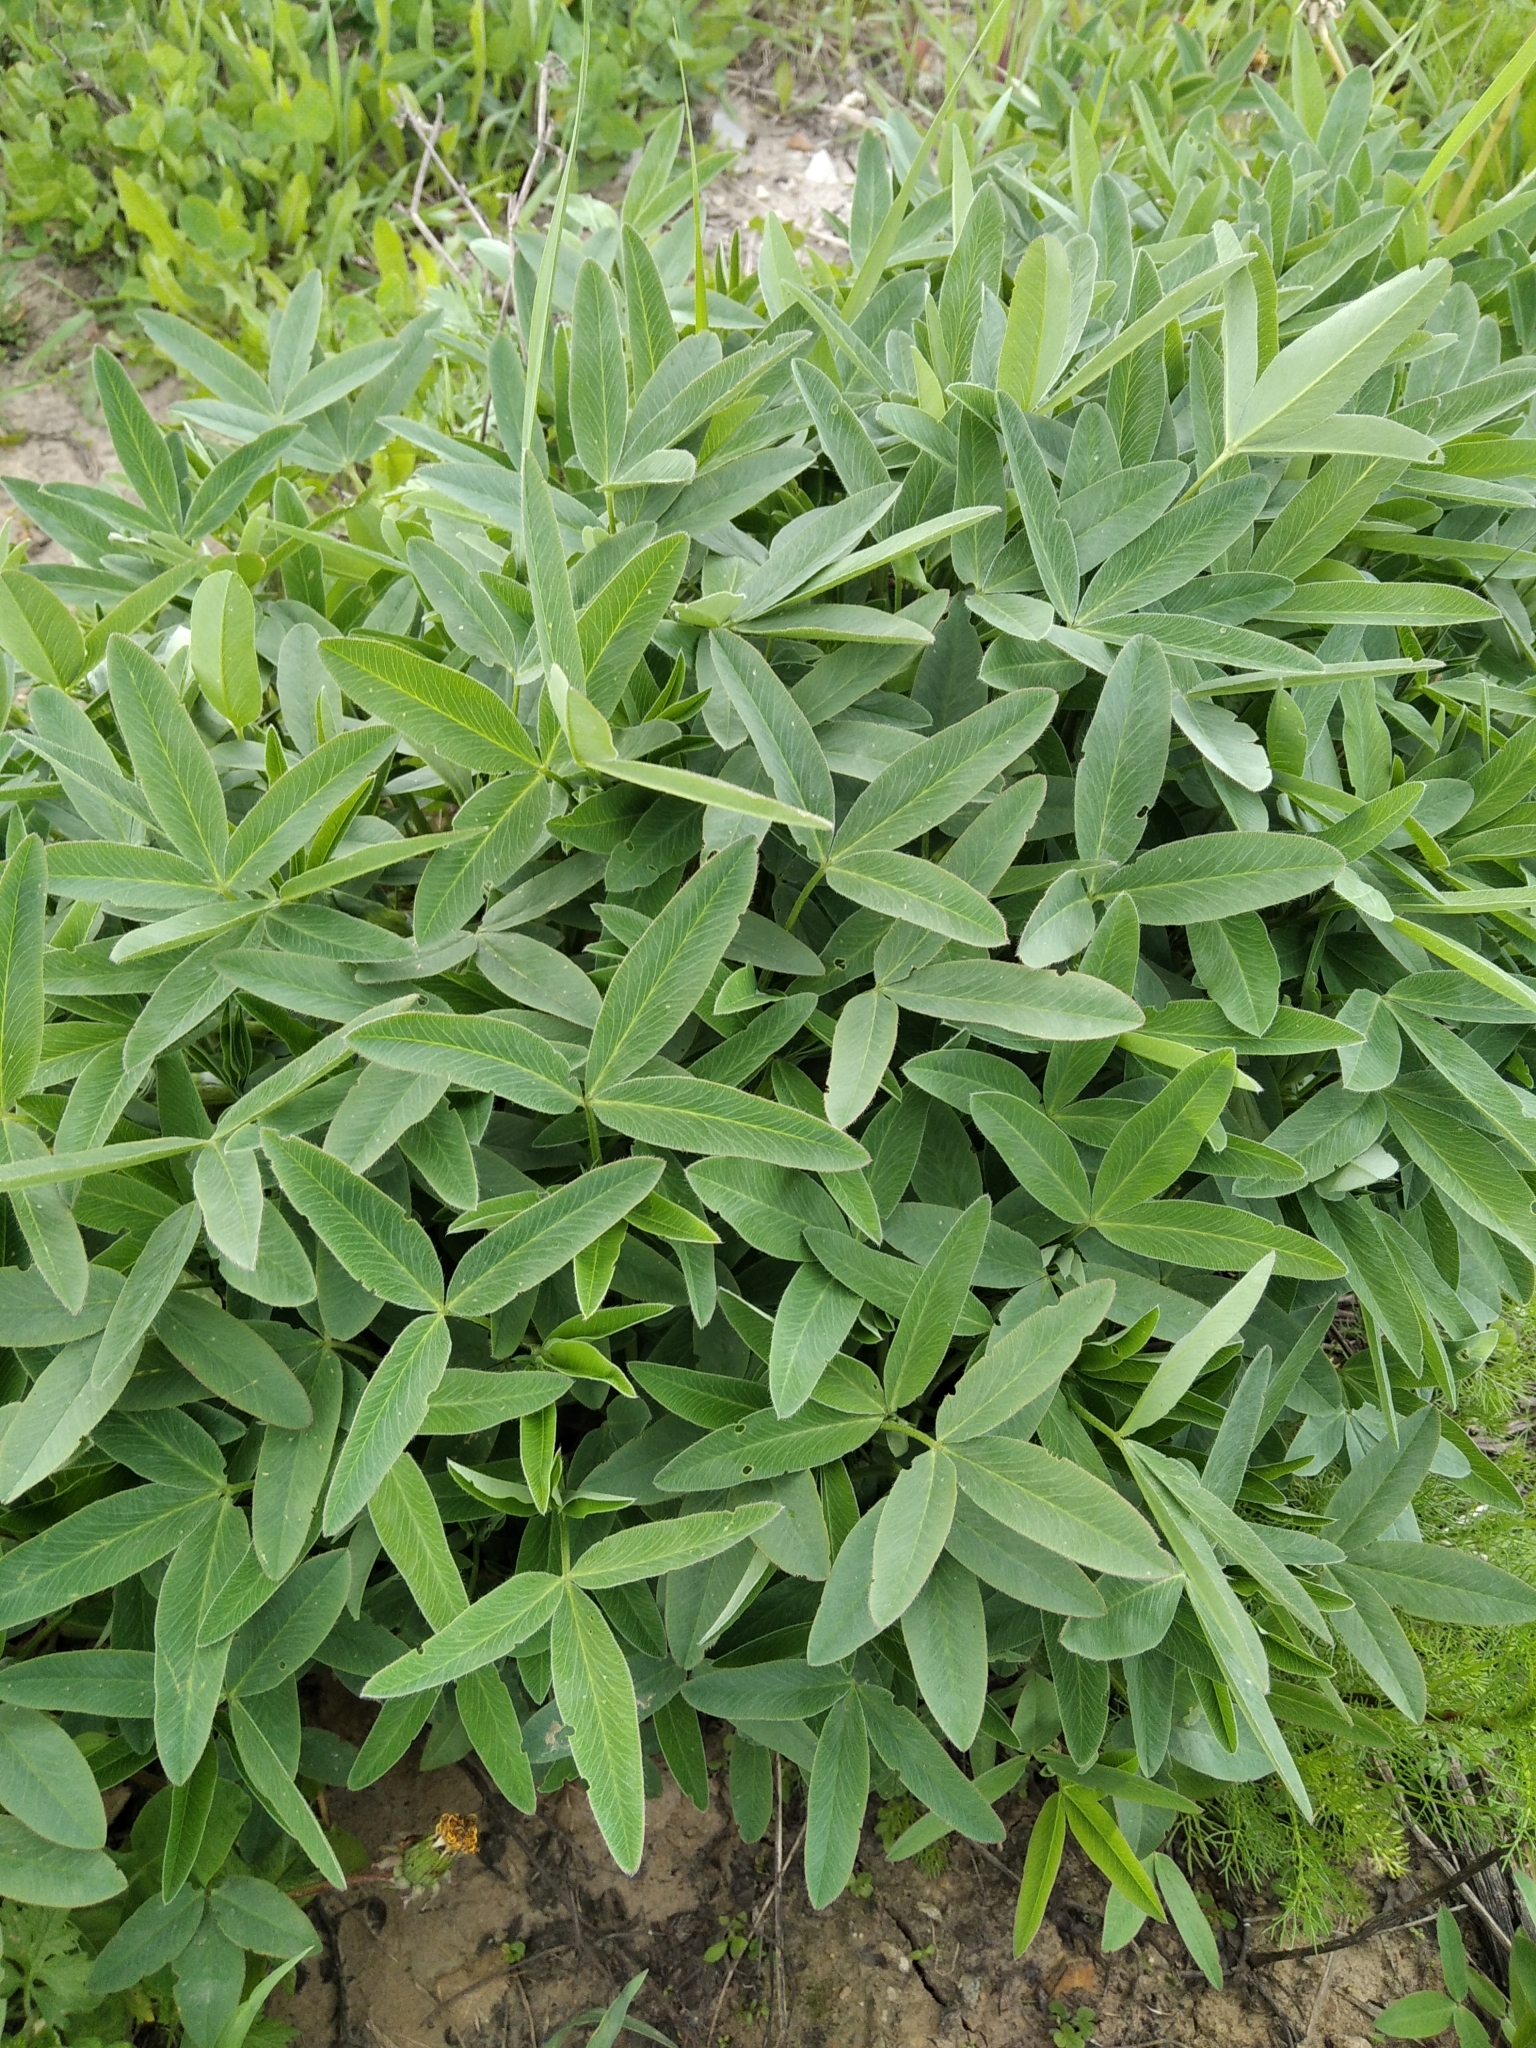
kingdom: Plantae
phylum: Tracheophyta
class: Magnoliopsida
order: Fabales
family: Fabaceae
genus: Trifolium
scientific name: Trifolium medium
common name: Zigzag clover
